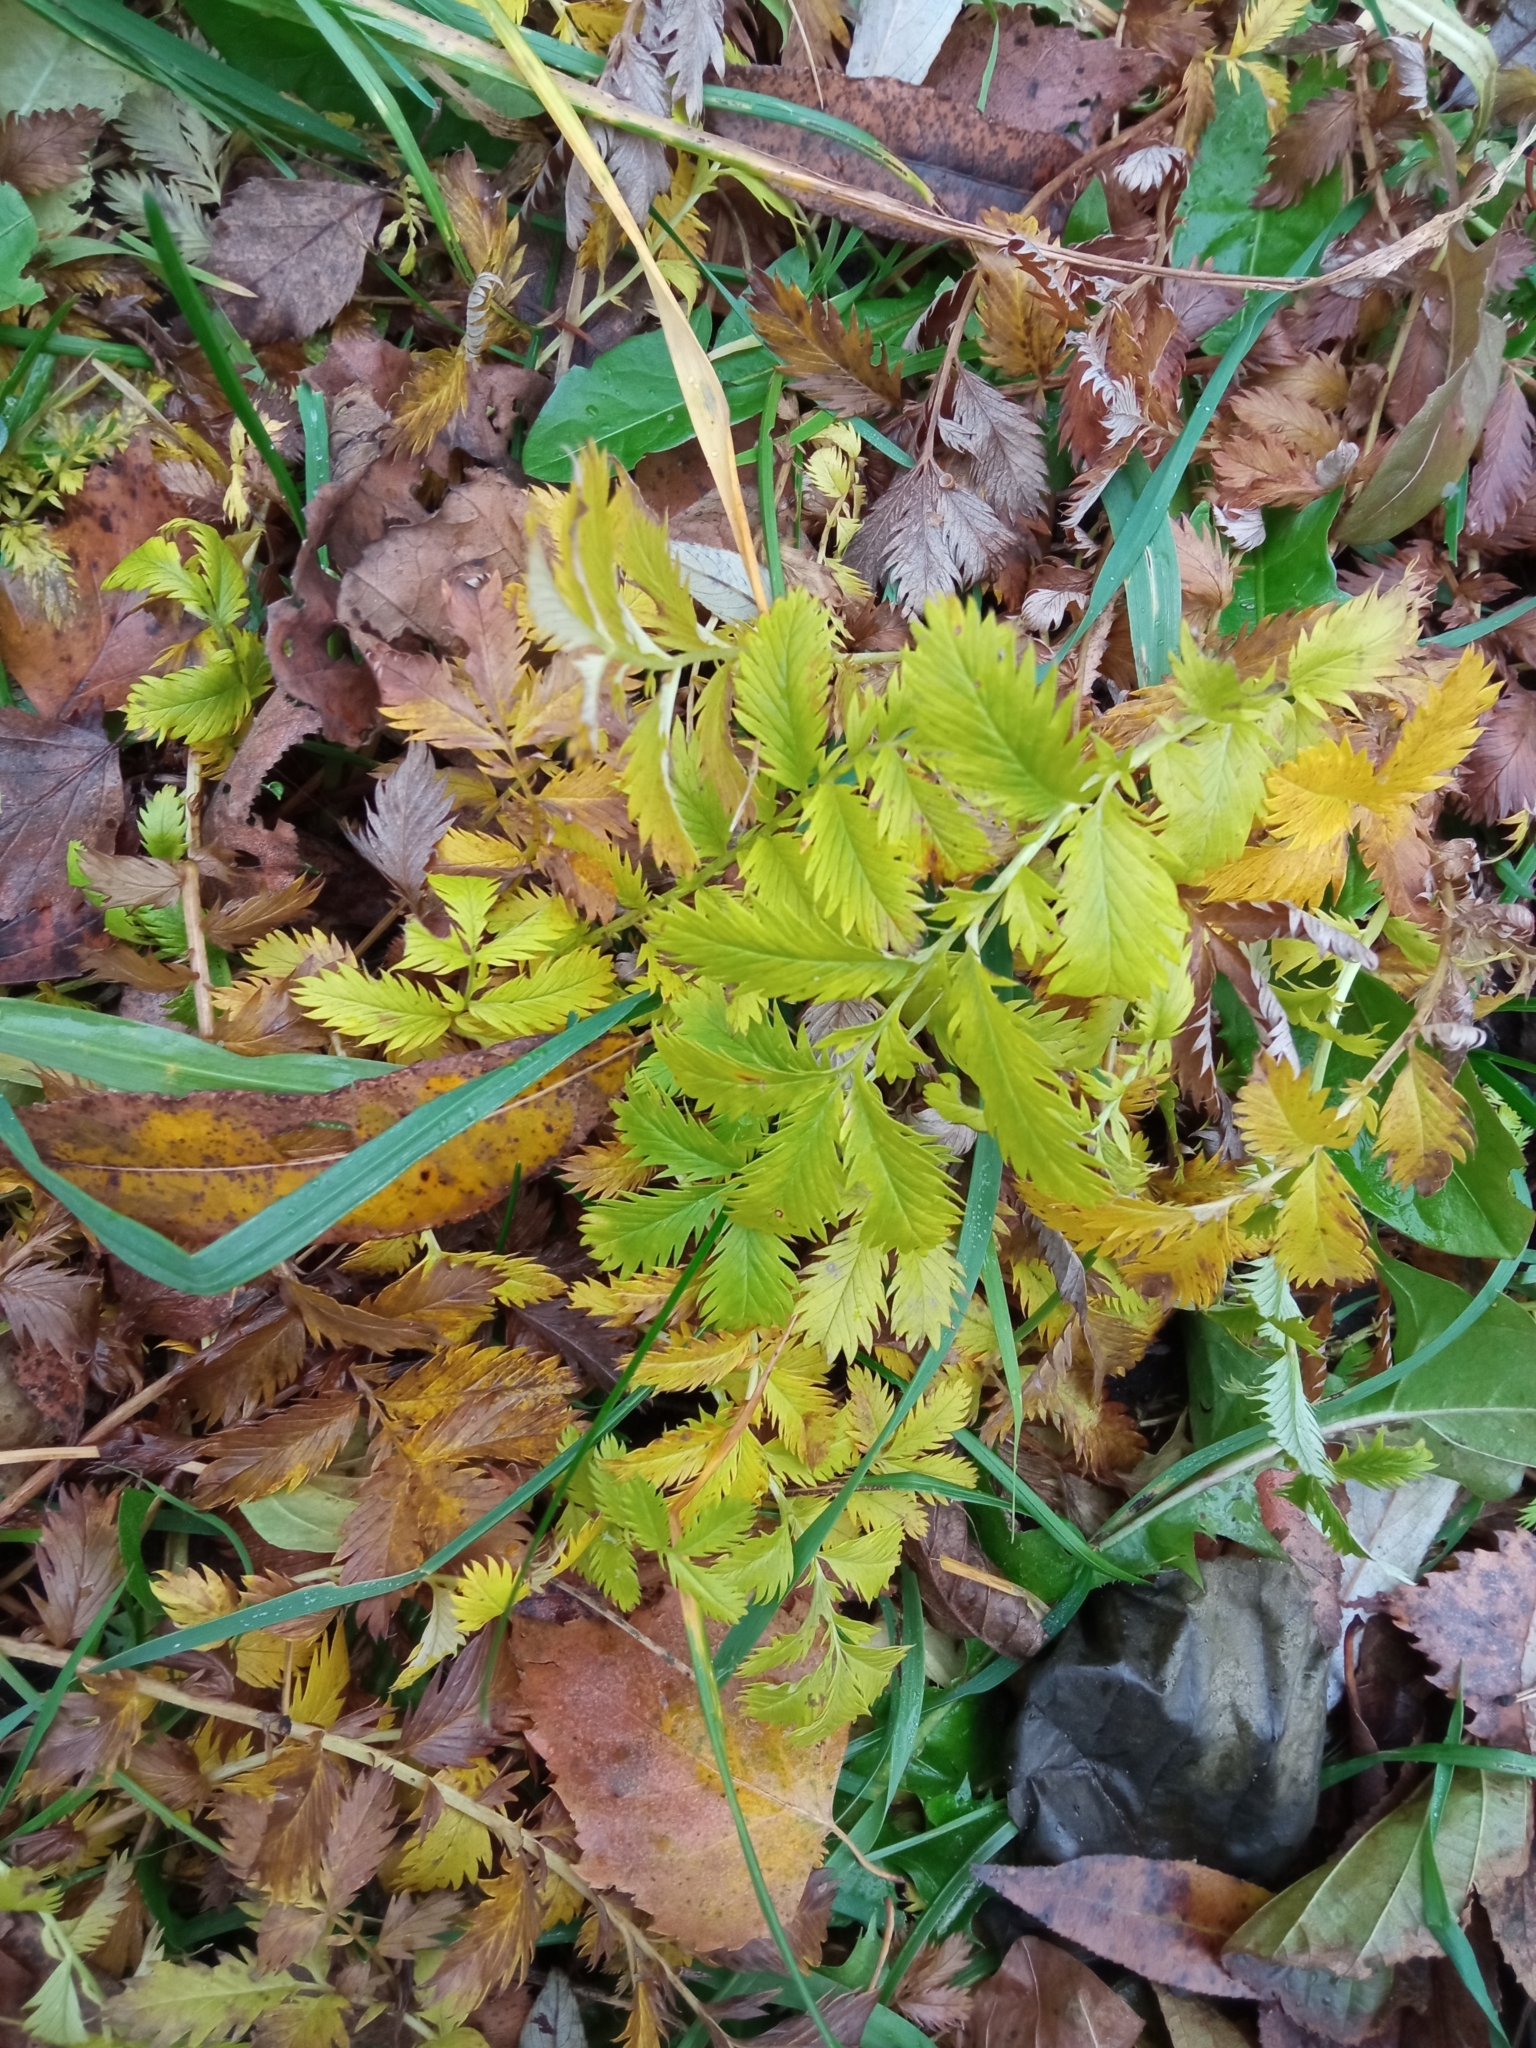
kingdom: Plantae
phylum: Tracheophyta
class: Magnoliopsida
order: Rosales
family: Rosaceae
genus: Argentina
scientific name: Argentina anserina
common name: Common silverweed
